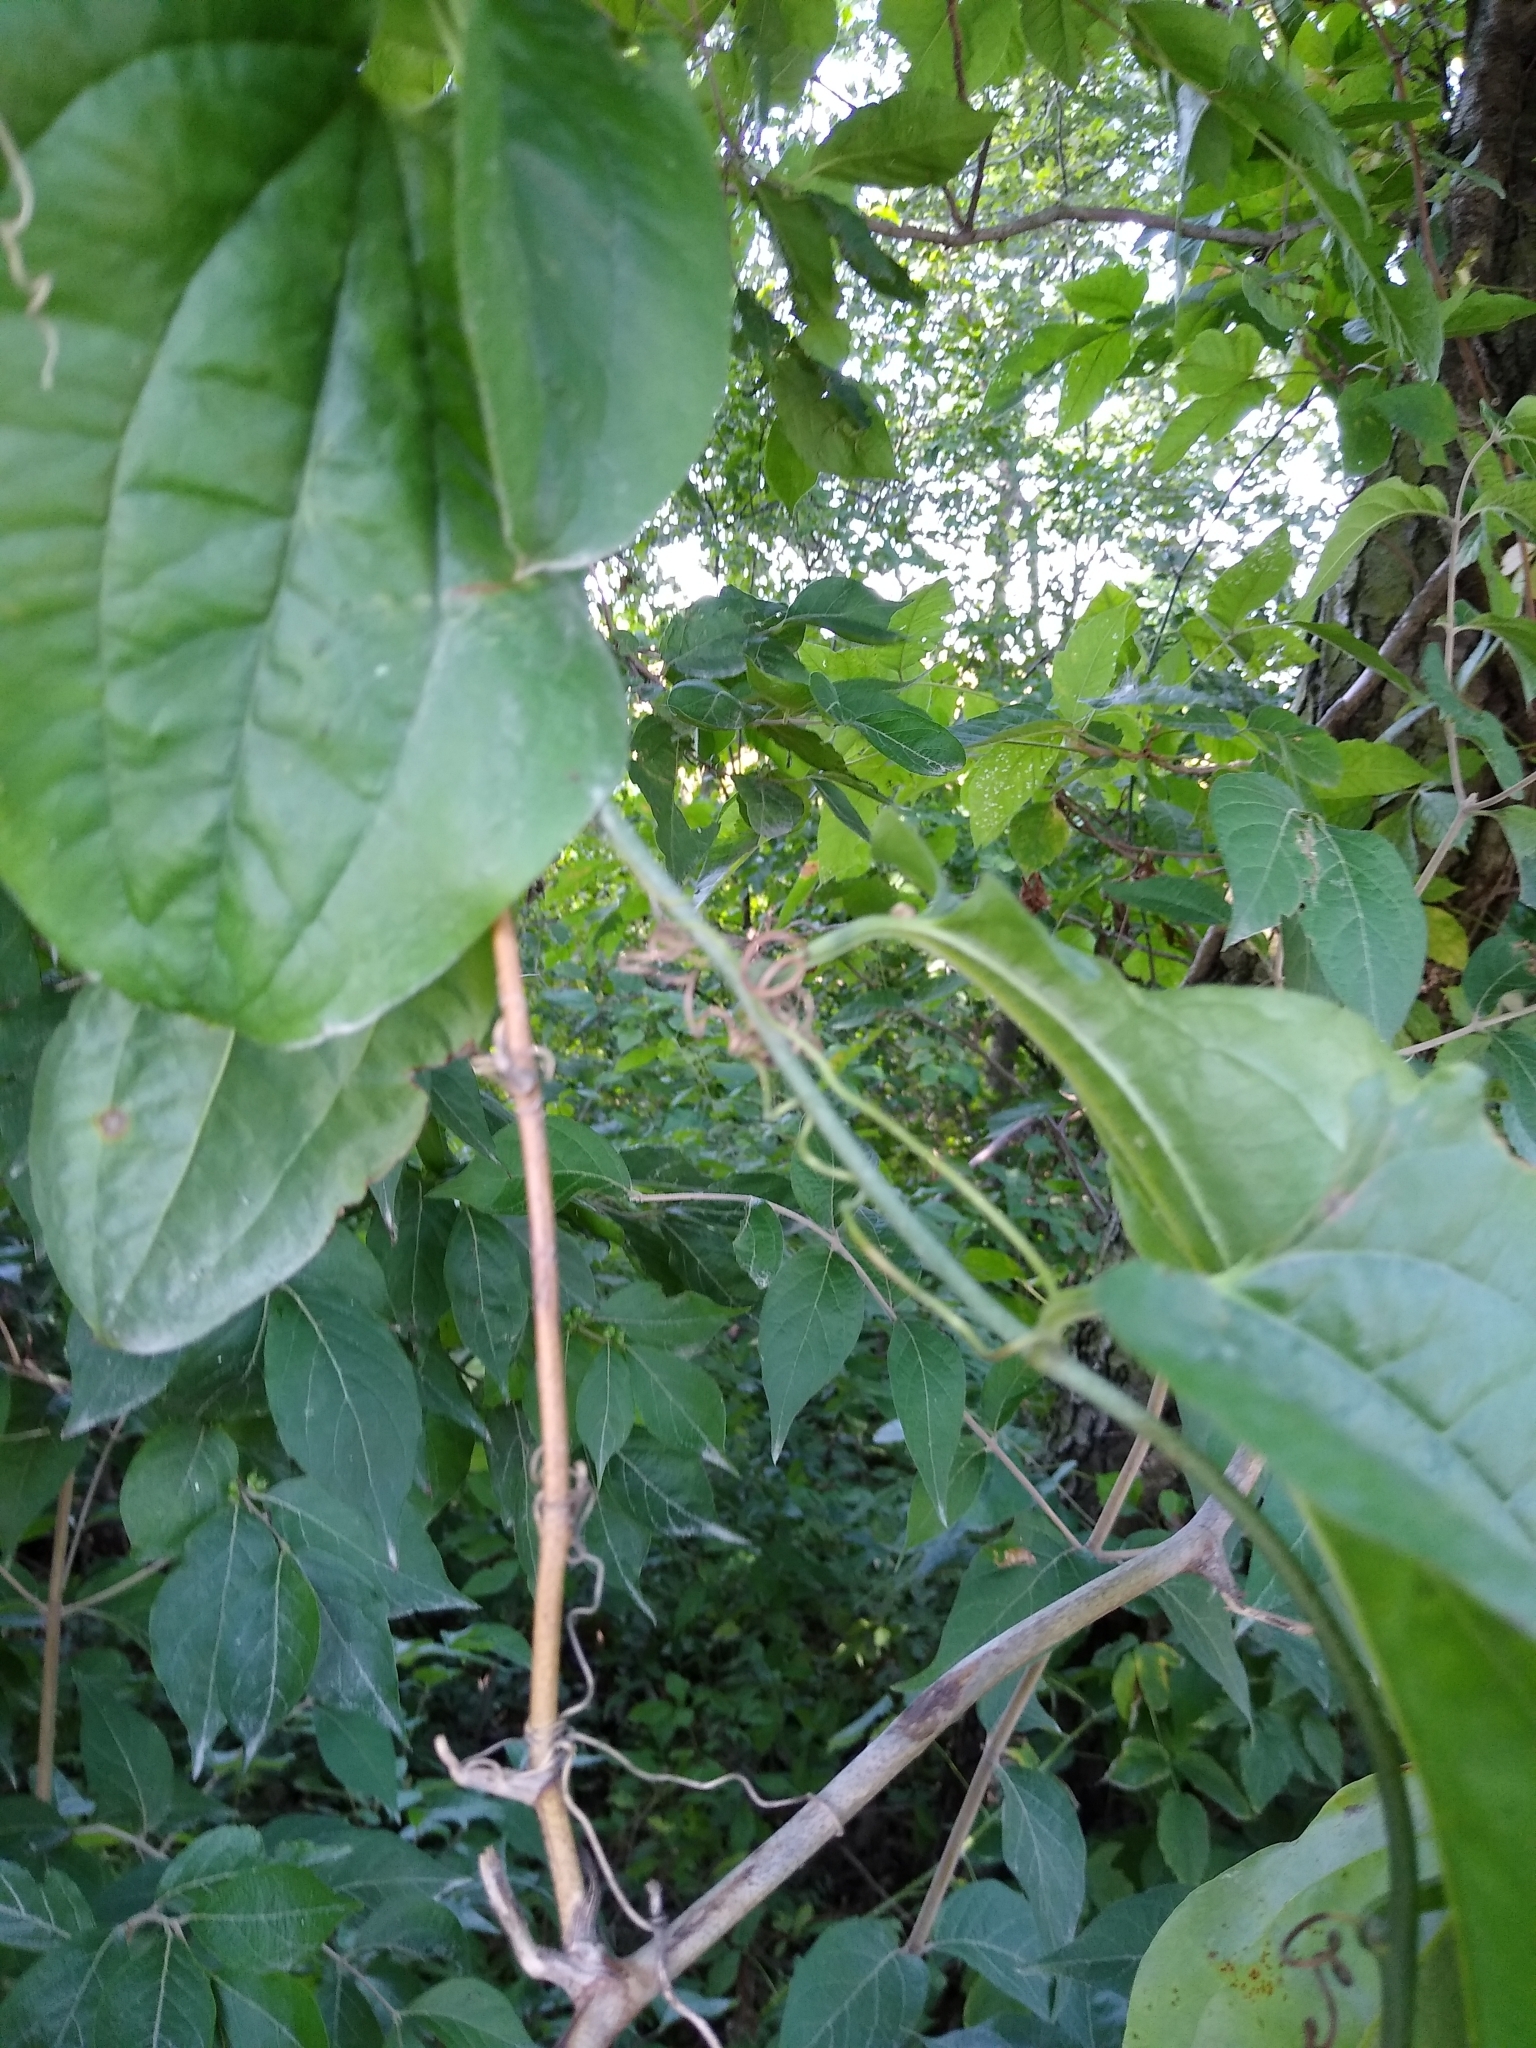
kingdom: Plantae
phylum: Tracheophyta
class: Liliopsida
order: Liliales
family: Smilacaceae
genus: Smilax
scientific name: Smilax tamnoides
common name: Hellfetter
